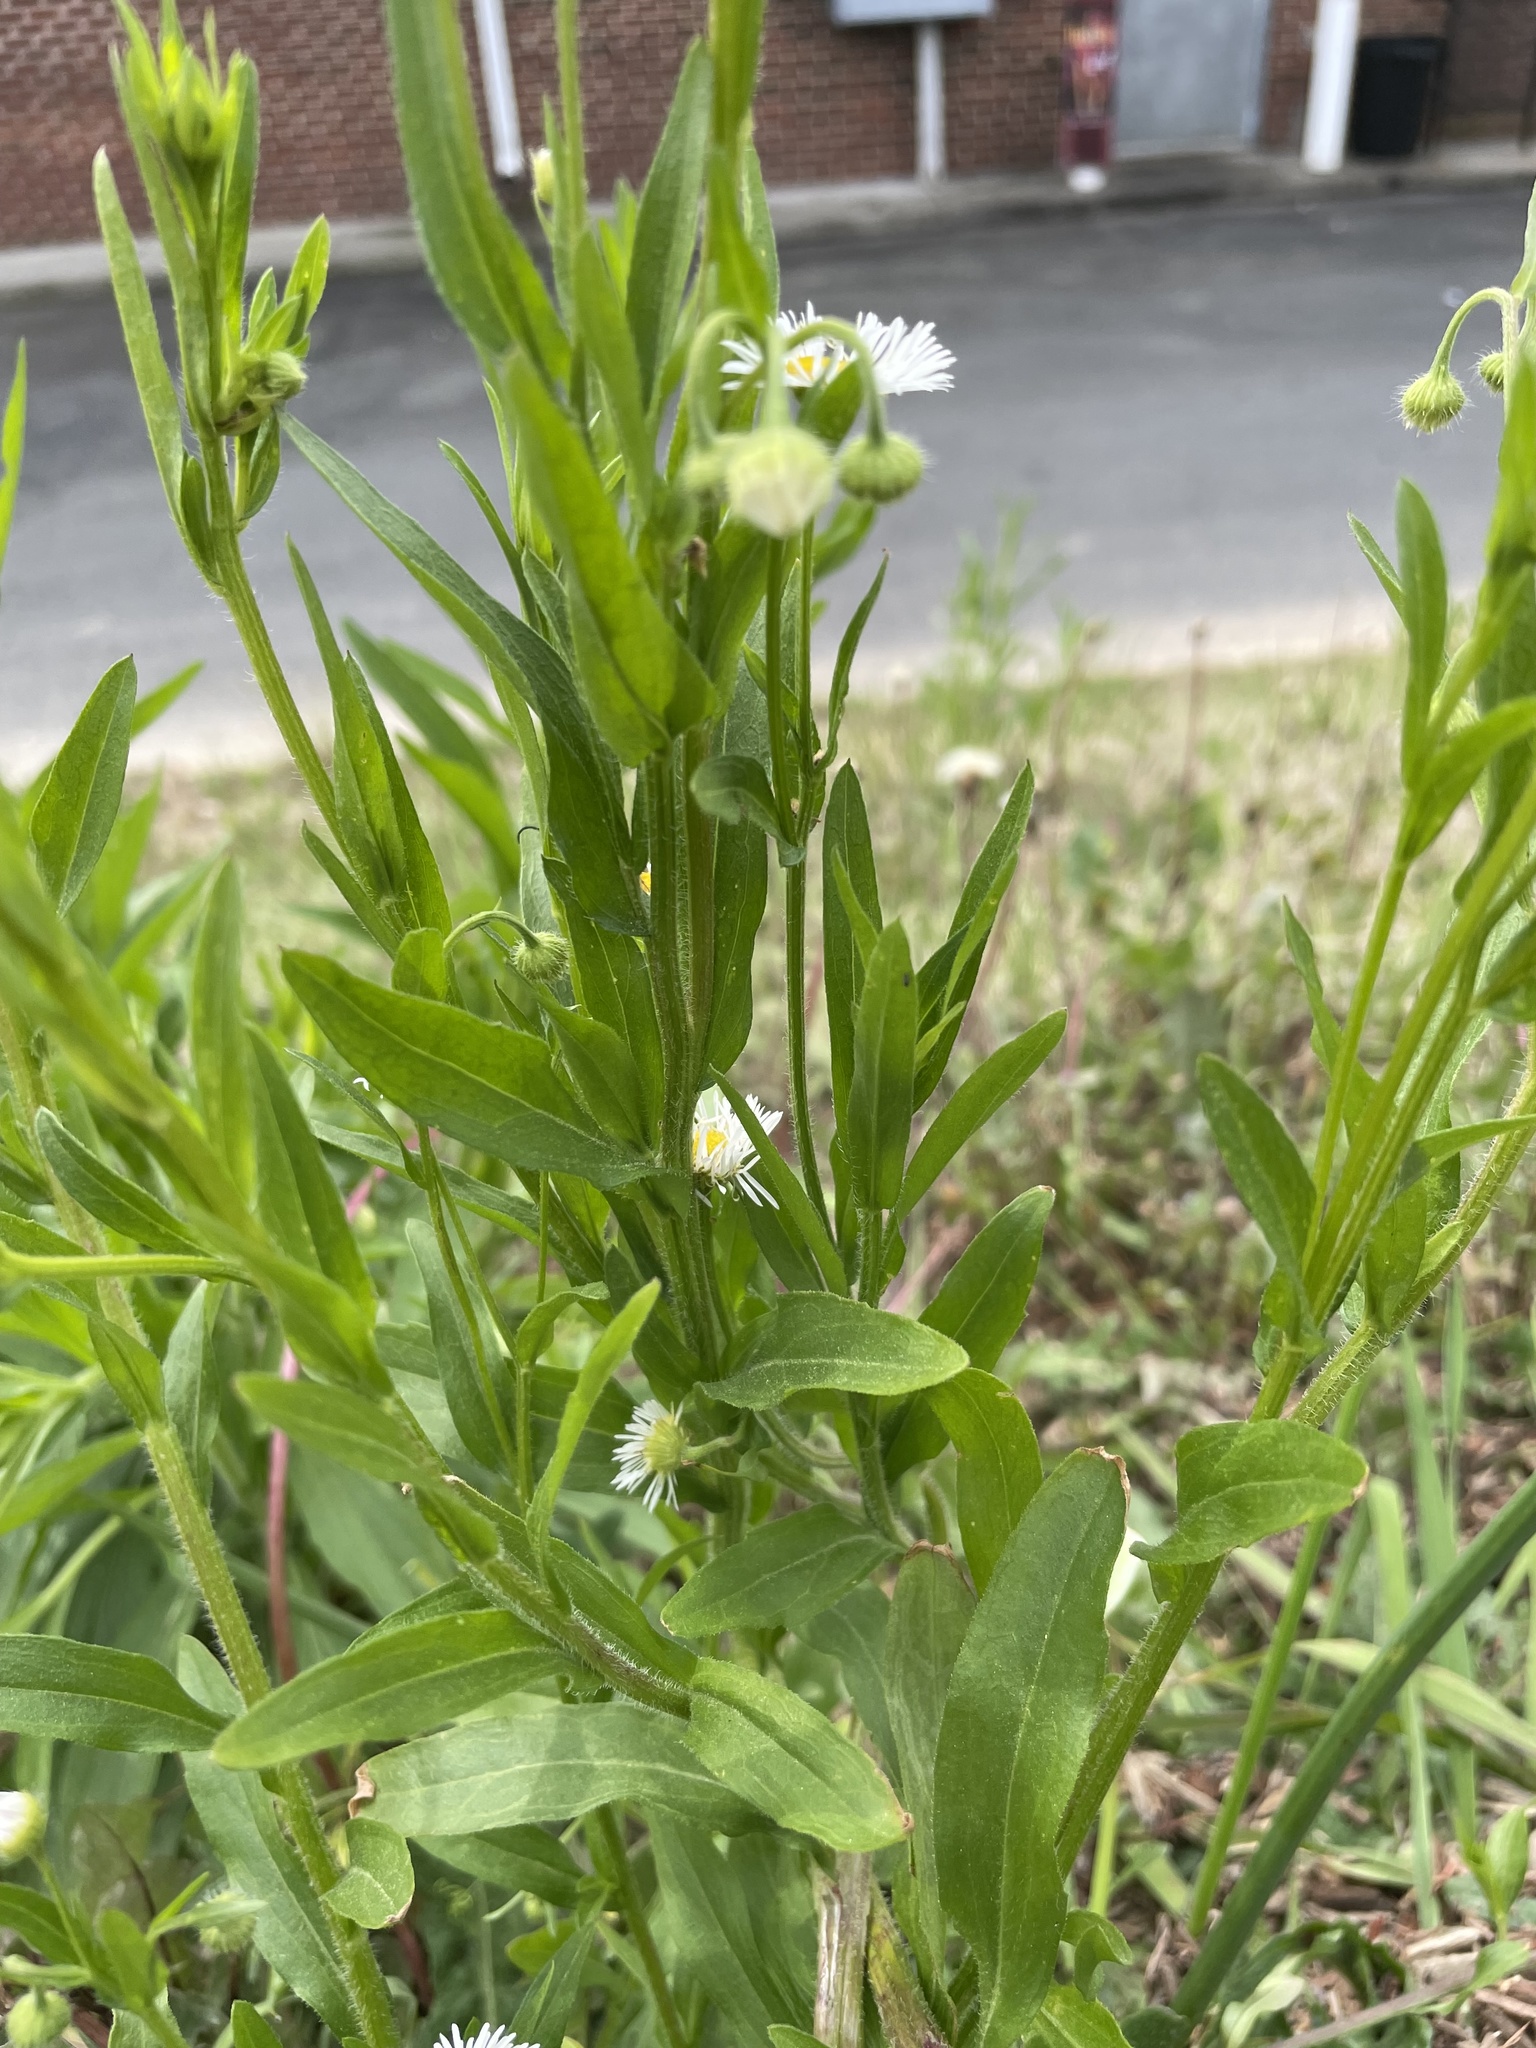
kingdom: Plantae
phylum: Tracheophyta
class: Magnoliopsida
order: Asterales
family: Asteraceae
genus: Erigeron
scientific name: Erigeron philadelphicus
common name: Robin's-plantain
